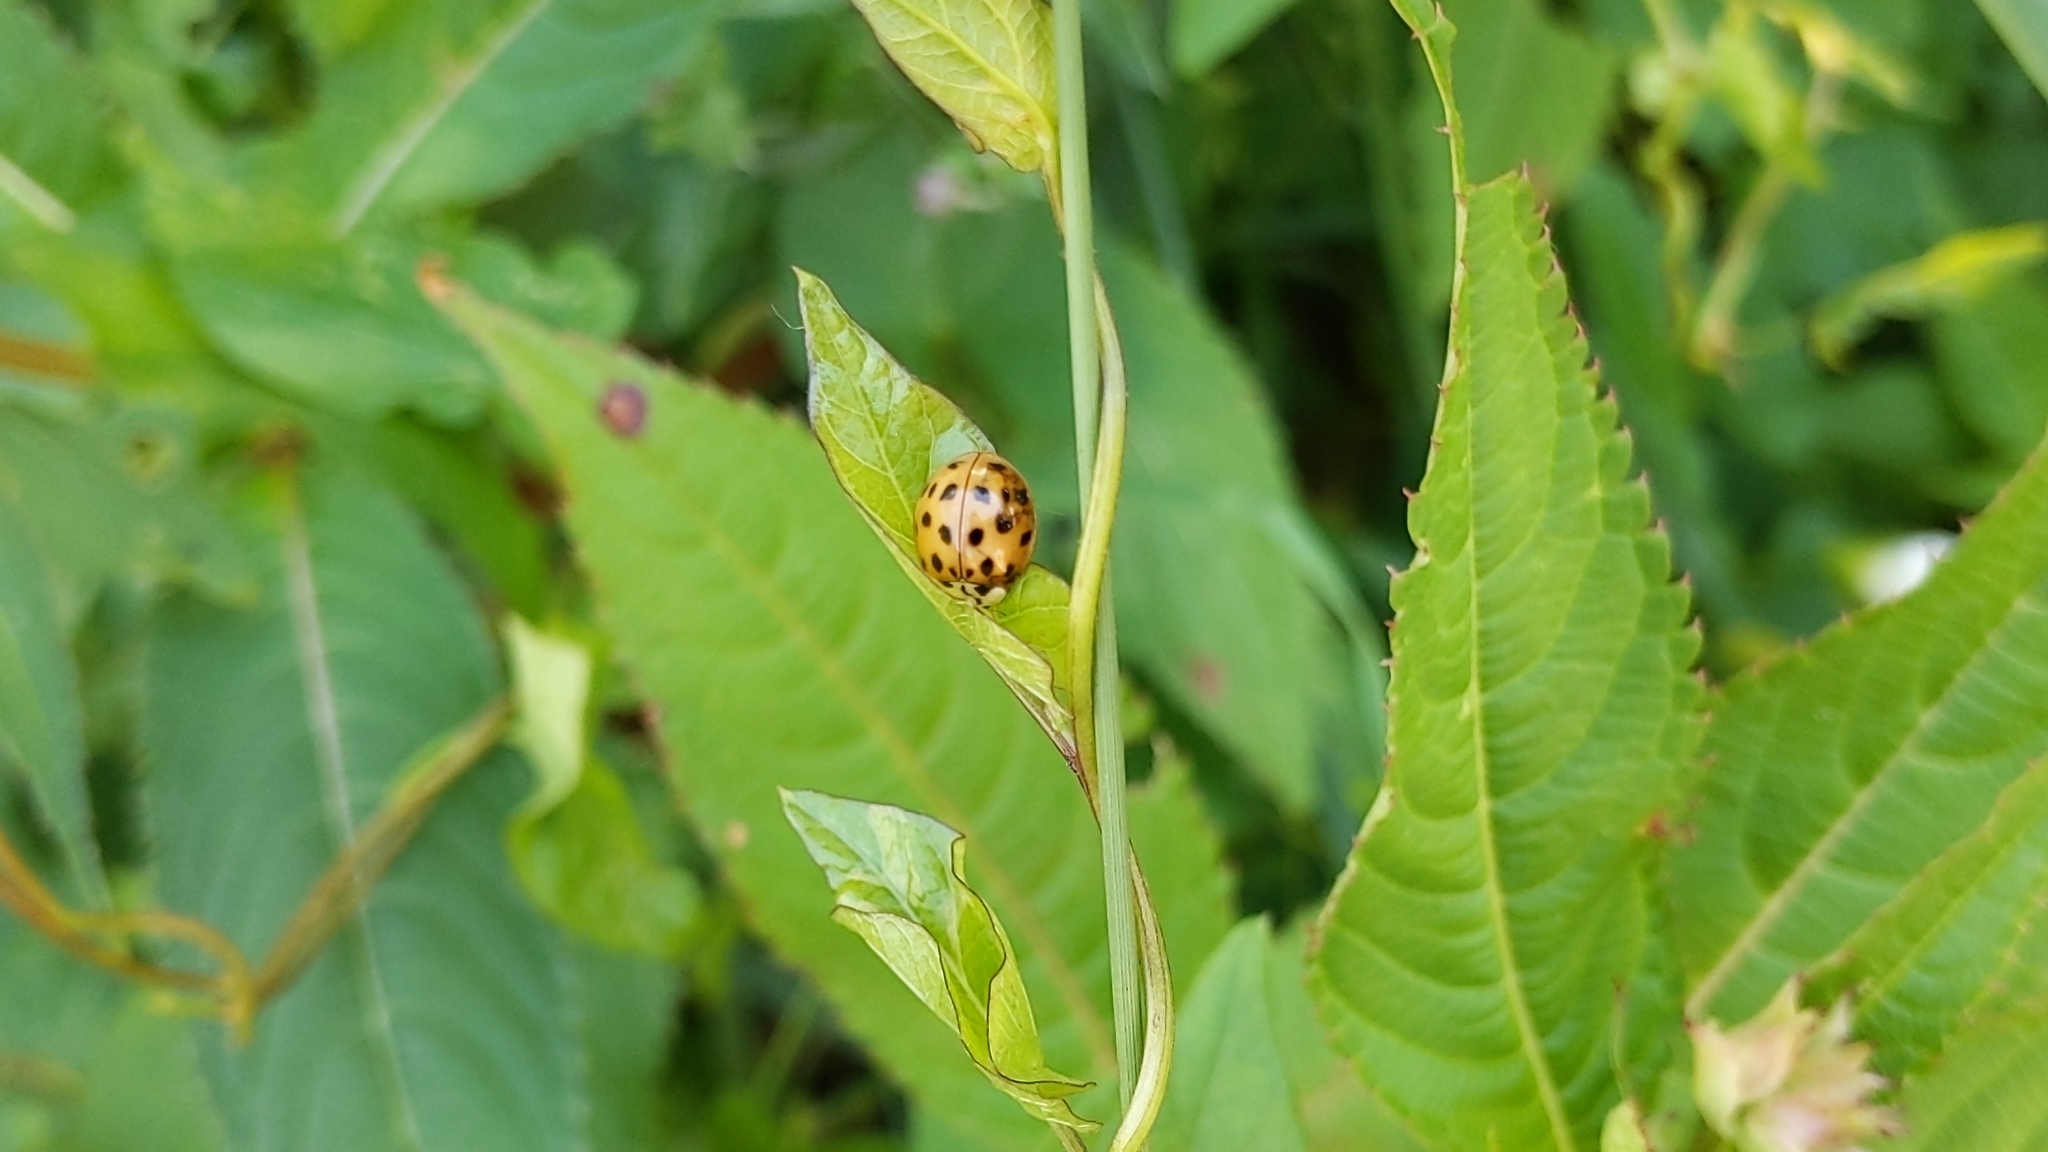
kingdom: Animalia
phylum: Arthropoda
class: Insecta
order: Coleoptera
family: Coccinellidae
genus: Harmonia
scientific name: Harmonia axyridis
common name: Harlequin ladybird
